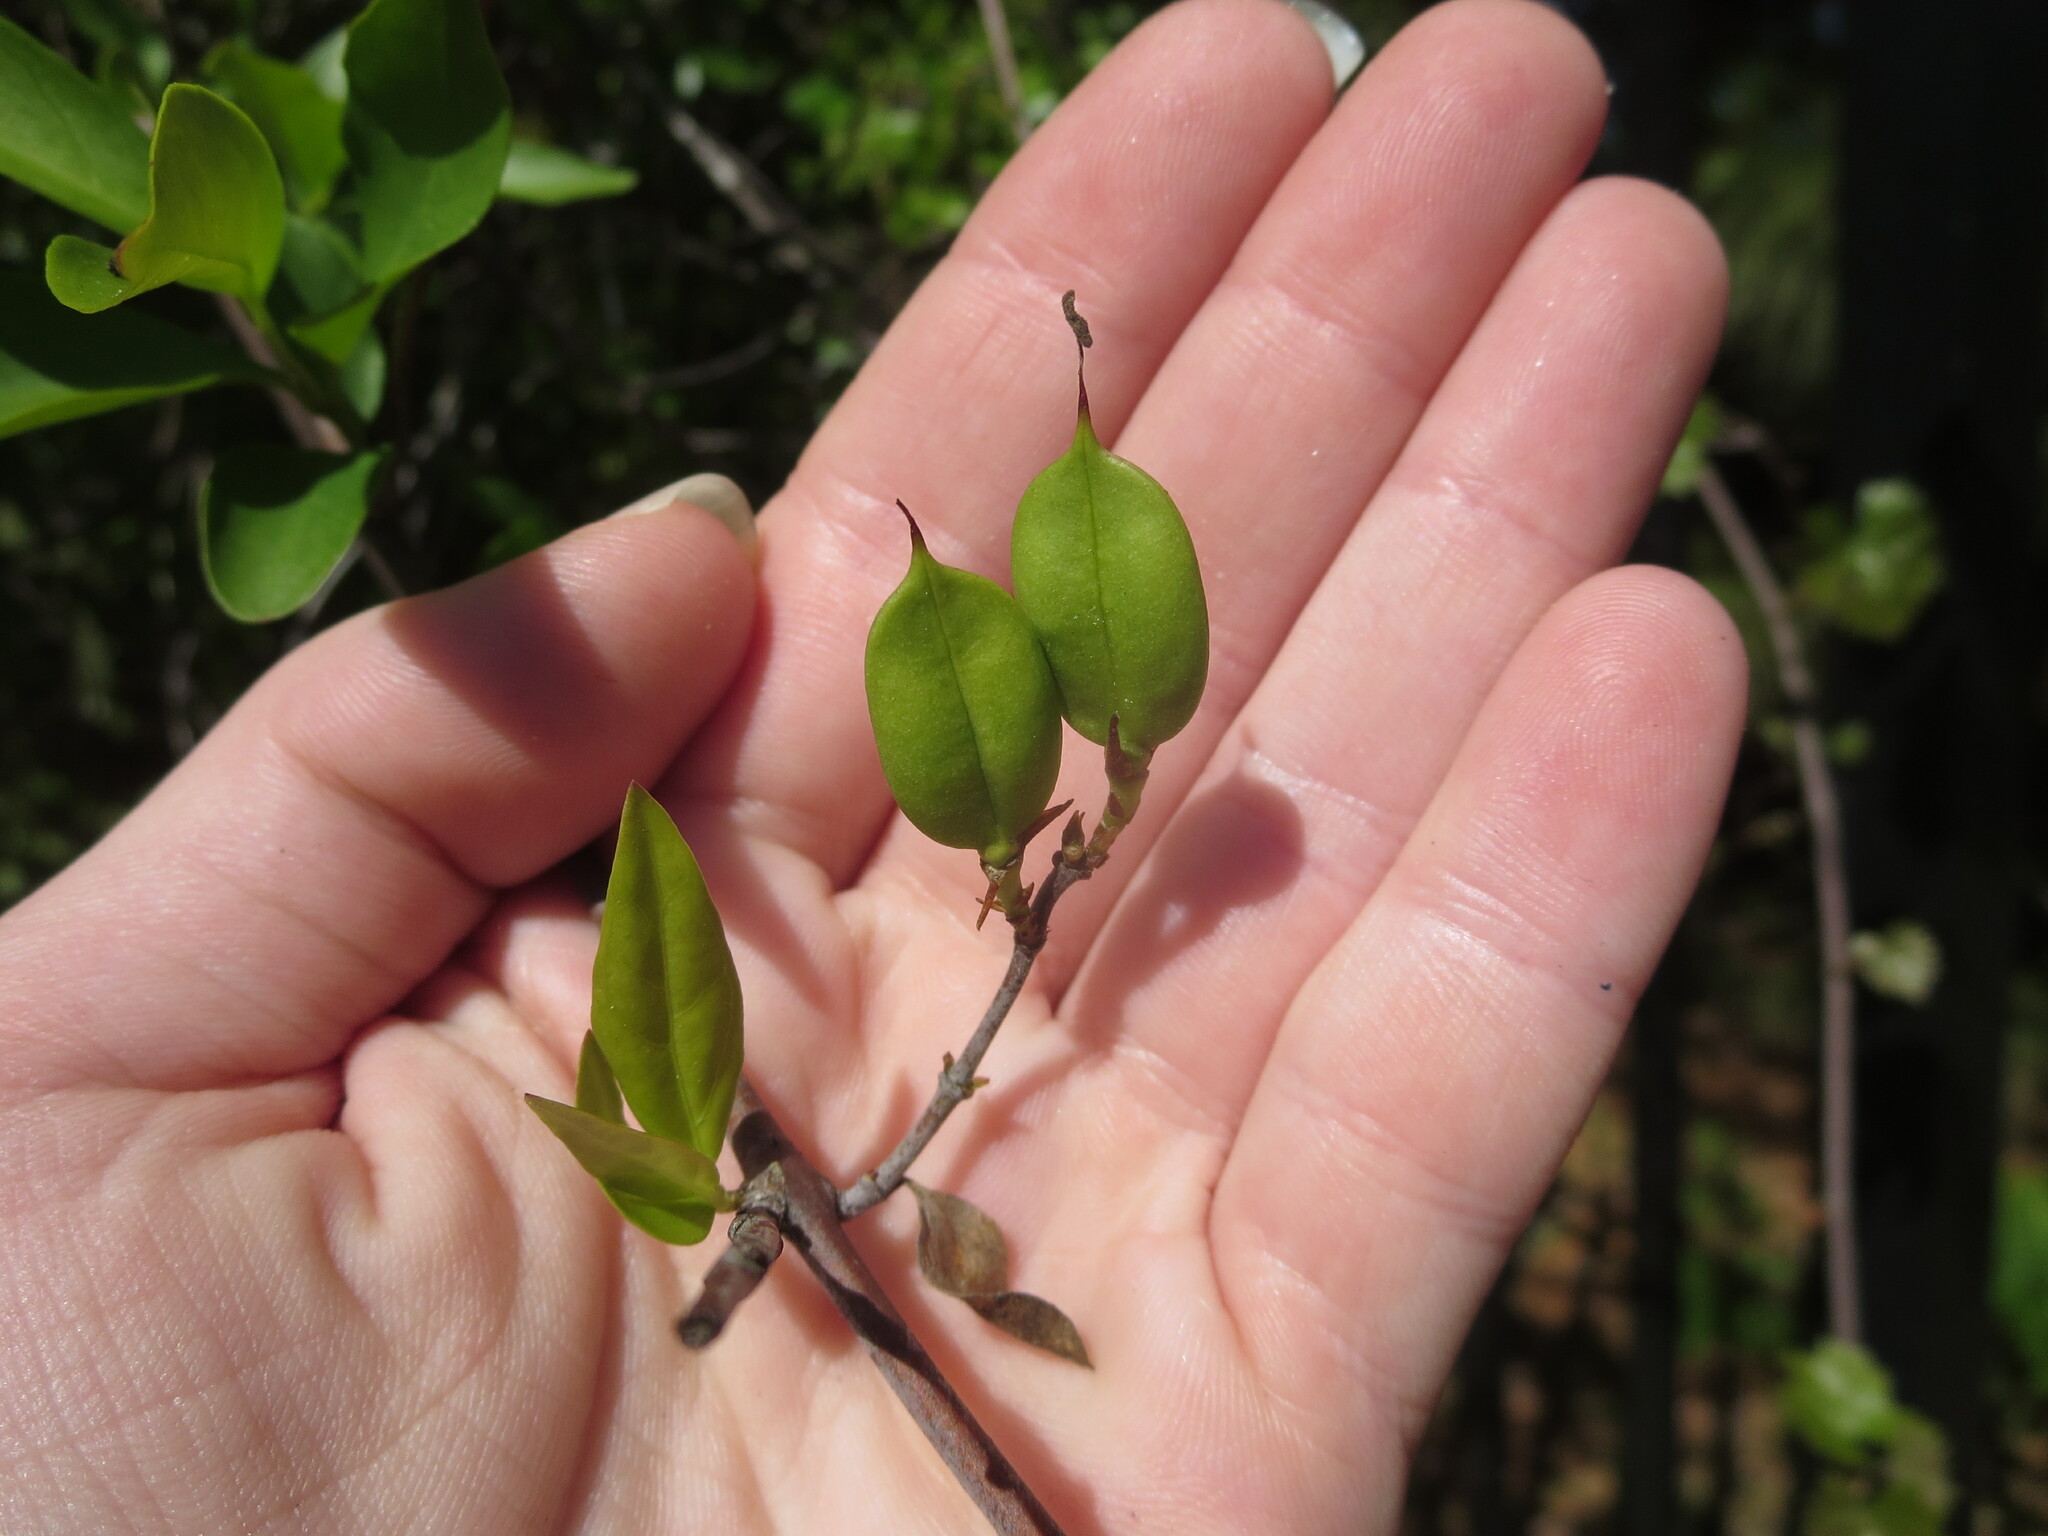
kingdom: Plantae
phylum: Tracheophyta
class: Magnoliopsida
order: Gentianales
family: Gelsemiaceae
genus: Gelsemium
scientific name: Gelsemium sempervirens
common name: Carolina-jasmine
